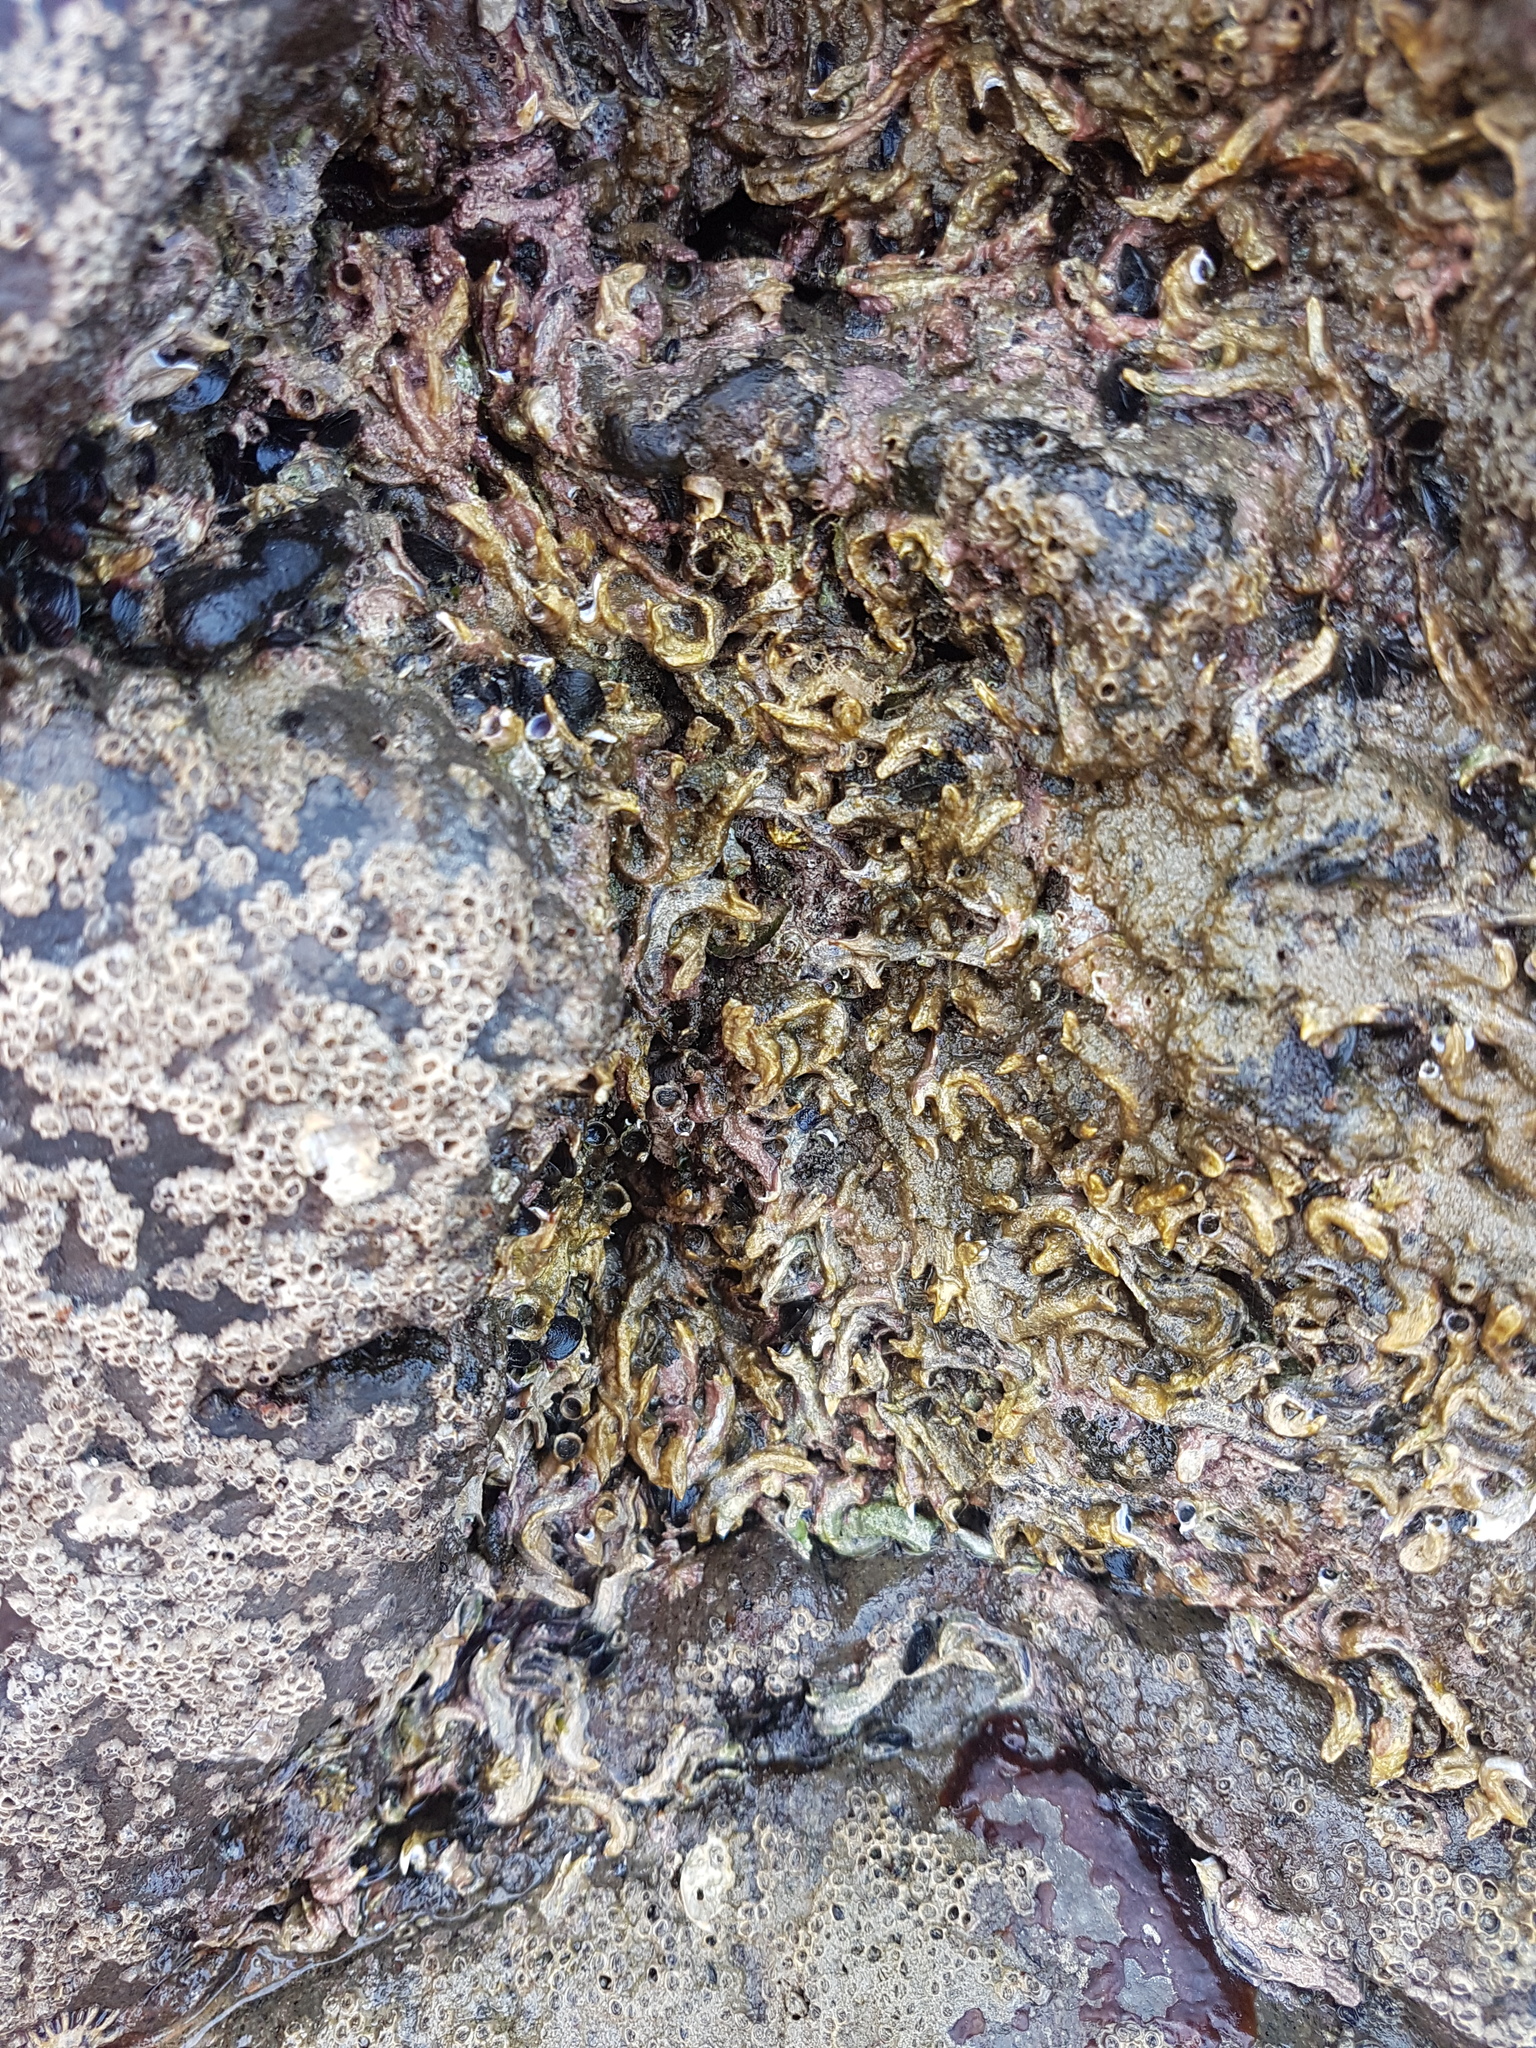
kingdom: Animalia
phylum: Annelida
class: Polychaeta
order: Sabellida
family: Serpulidae
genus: Spirobranchus
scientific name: Spirobranchus cariniferus
